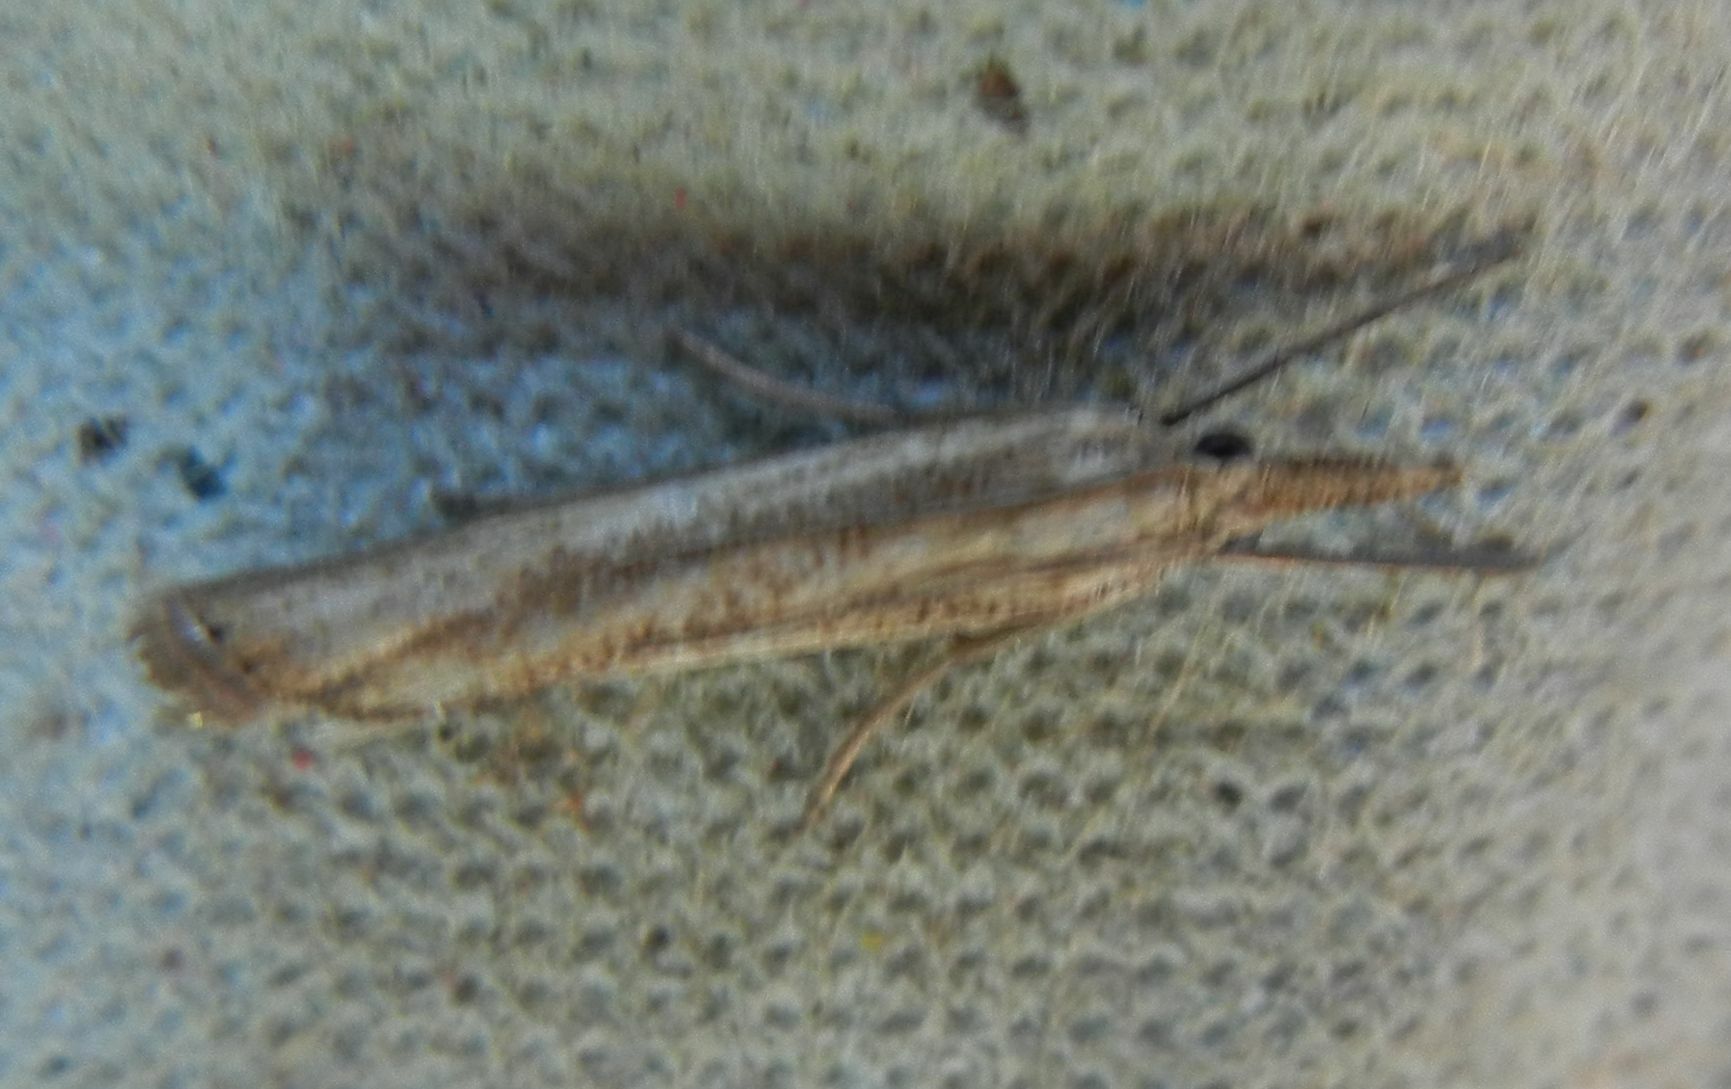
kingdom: Animalia
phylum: Arthropoda
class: Insecta
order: Lepidoptera
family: Crambidae
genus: Agriphila
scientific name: Agriphila straminella
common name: Straw grass-veneer
